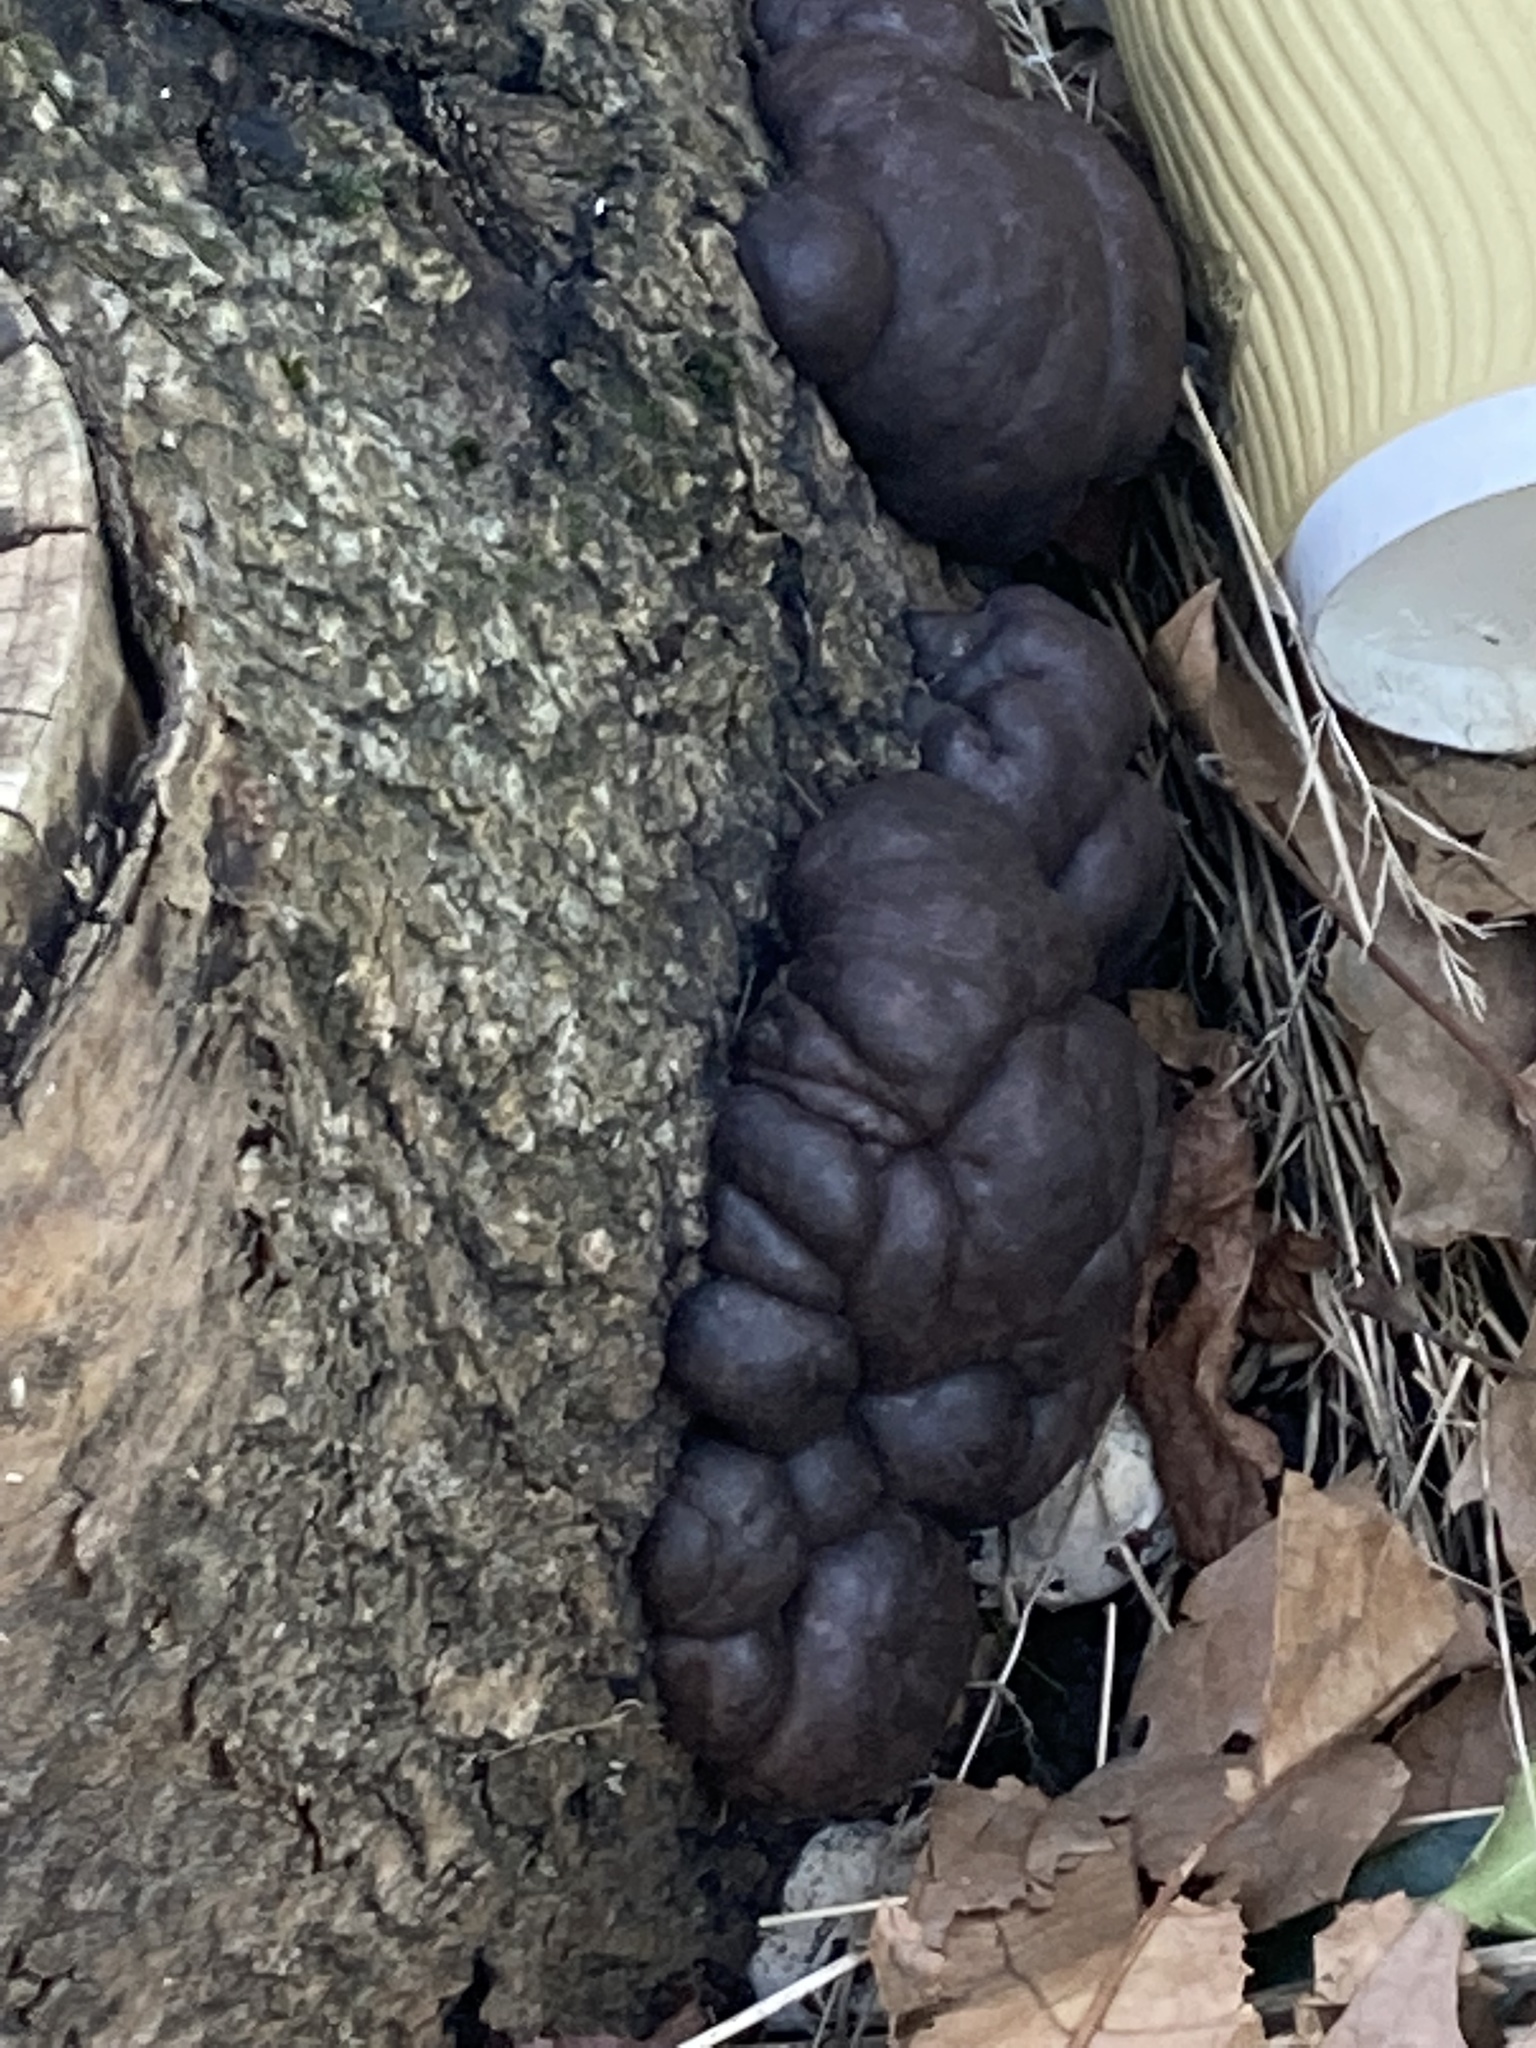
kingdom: Fungi
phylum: Ascomycota
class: Sordariomycetes
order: Xylariales
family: Hypoxylaceae
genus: Daldinia
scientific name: Daldinia concentrica
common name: Cramp balls
